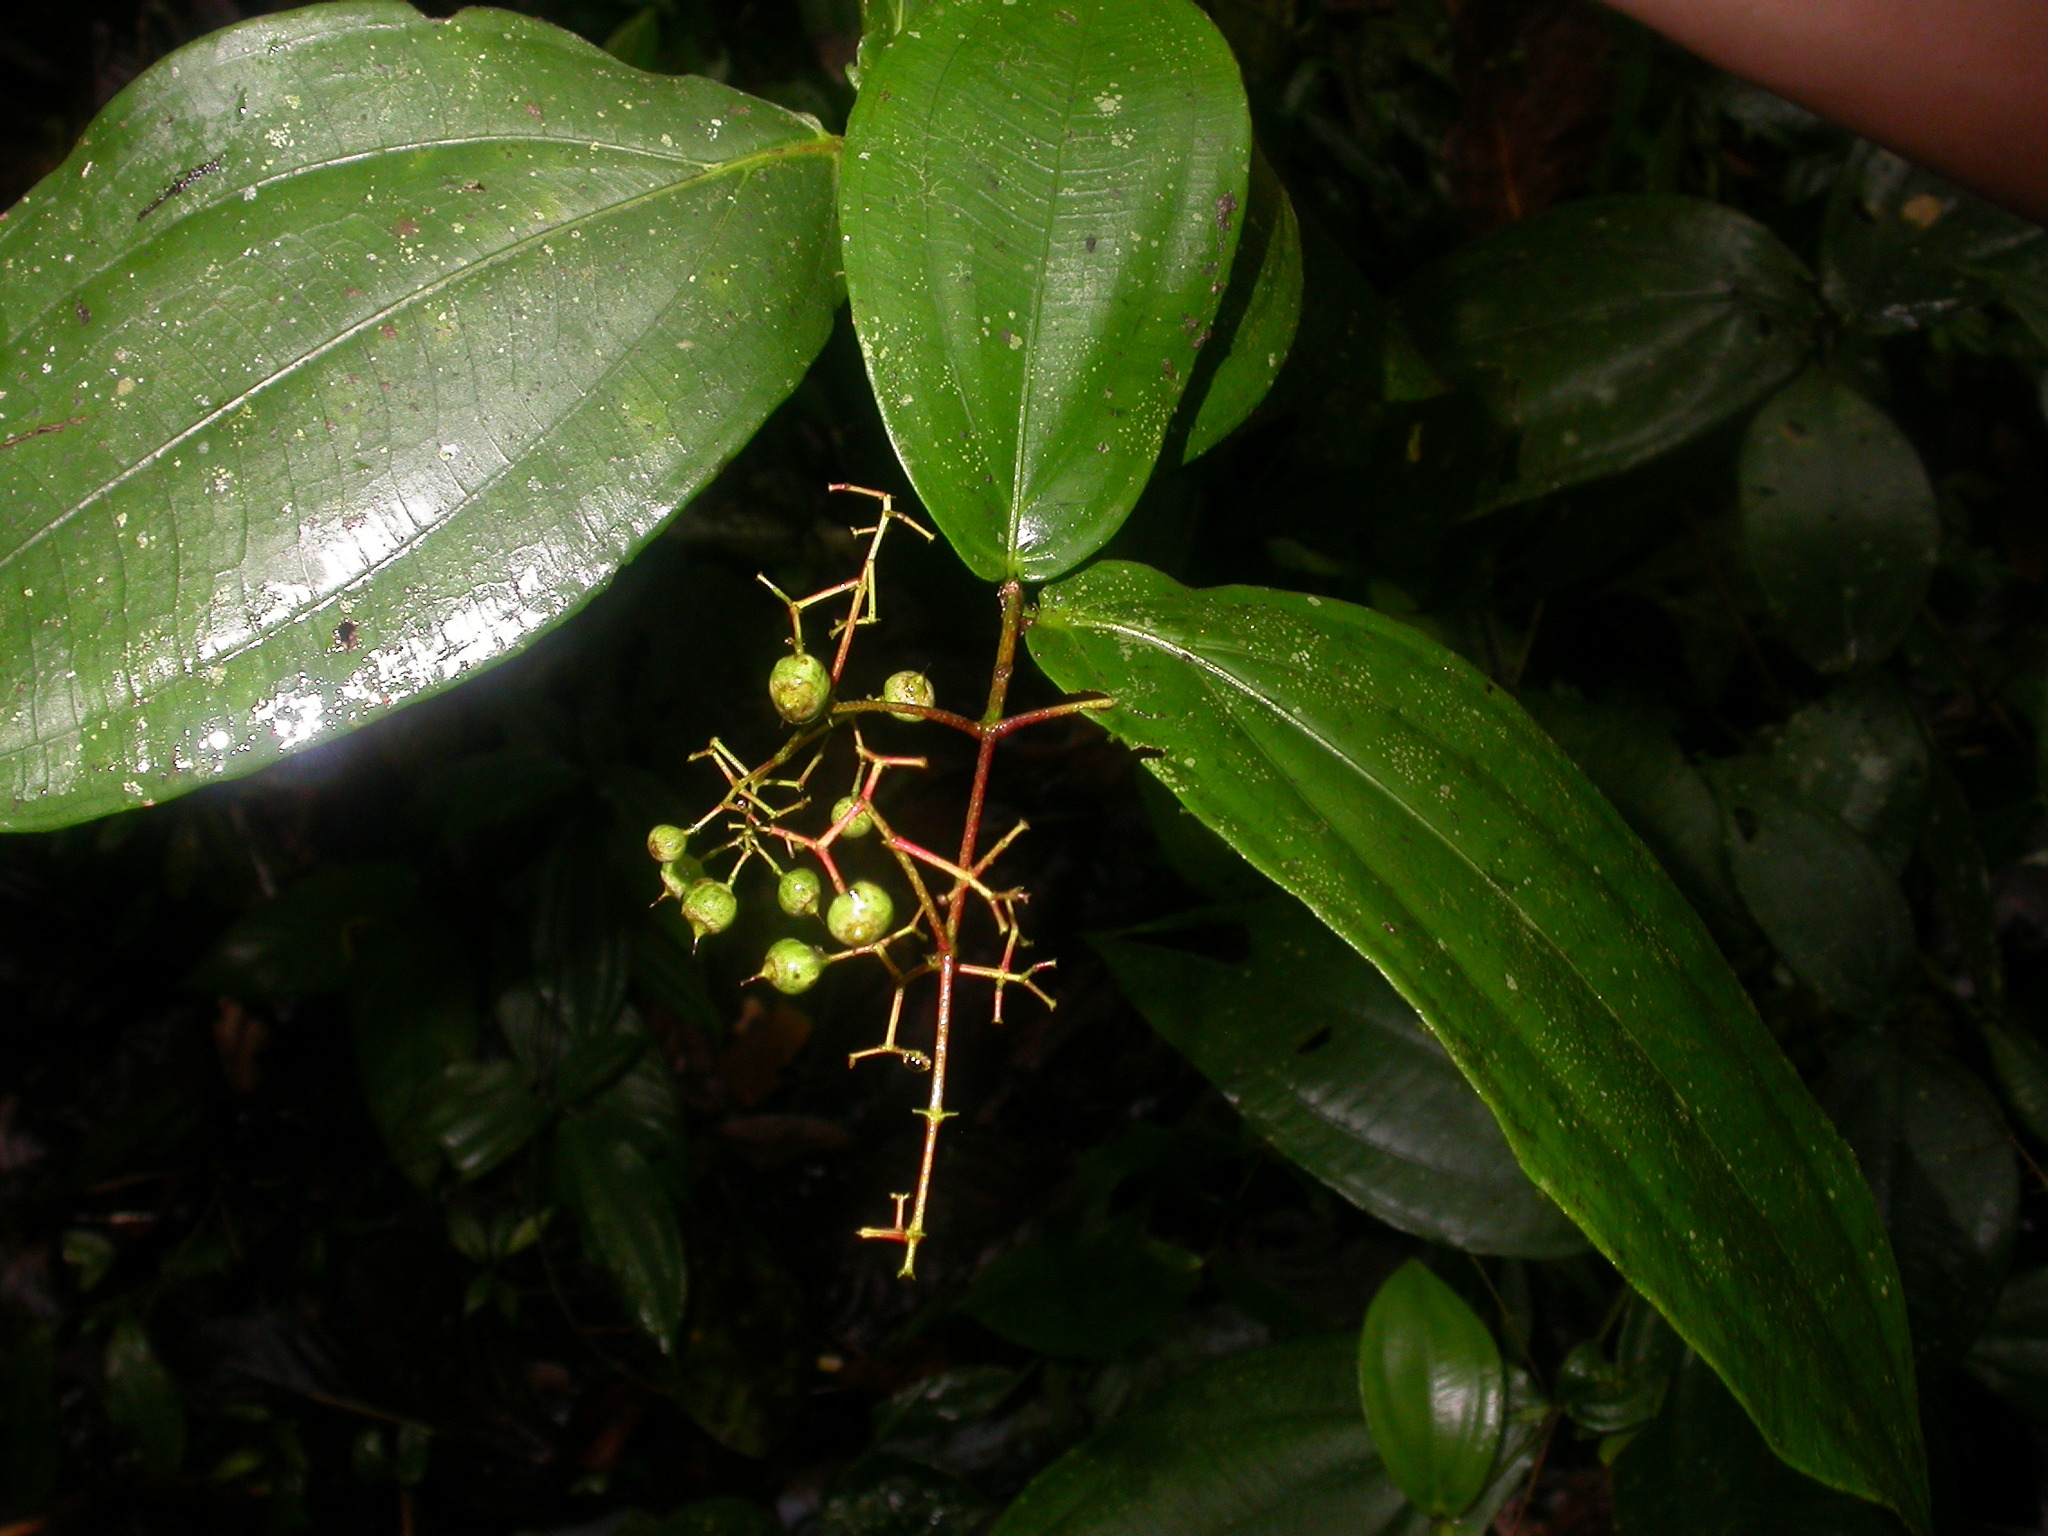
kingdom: Plantae
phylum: Tracheophyta
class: Magnoliopsida
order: Myrtales
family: Melastomataceae
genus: Miconia
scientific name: Miconia dissitiflora
